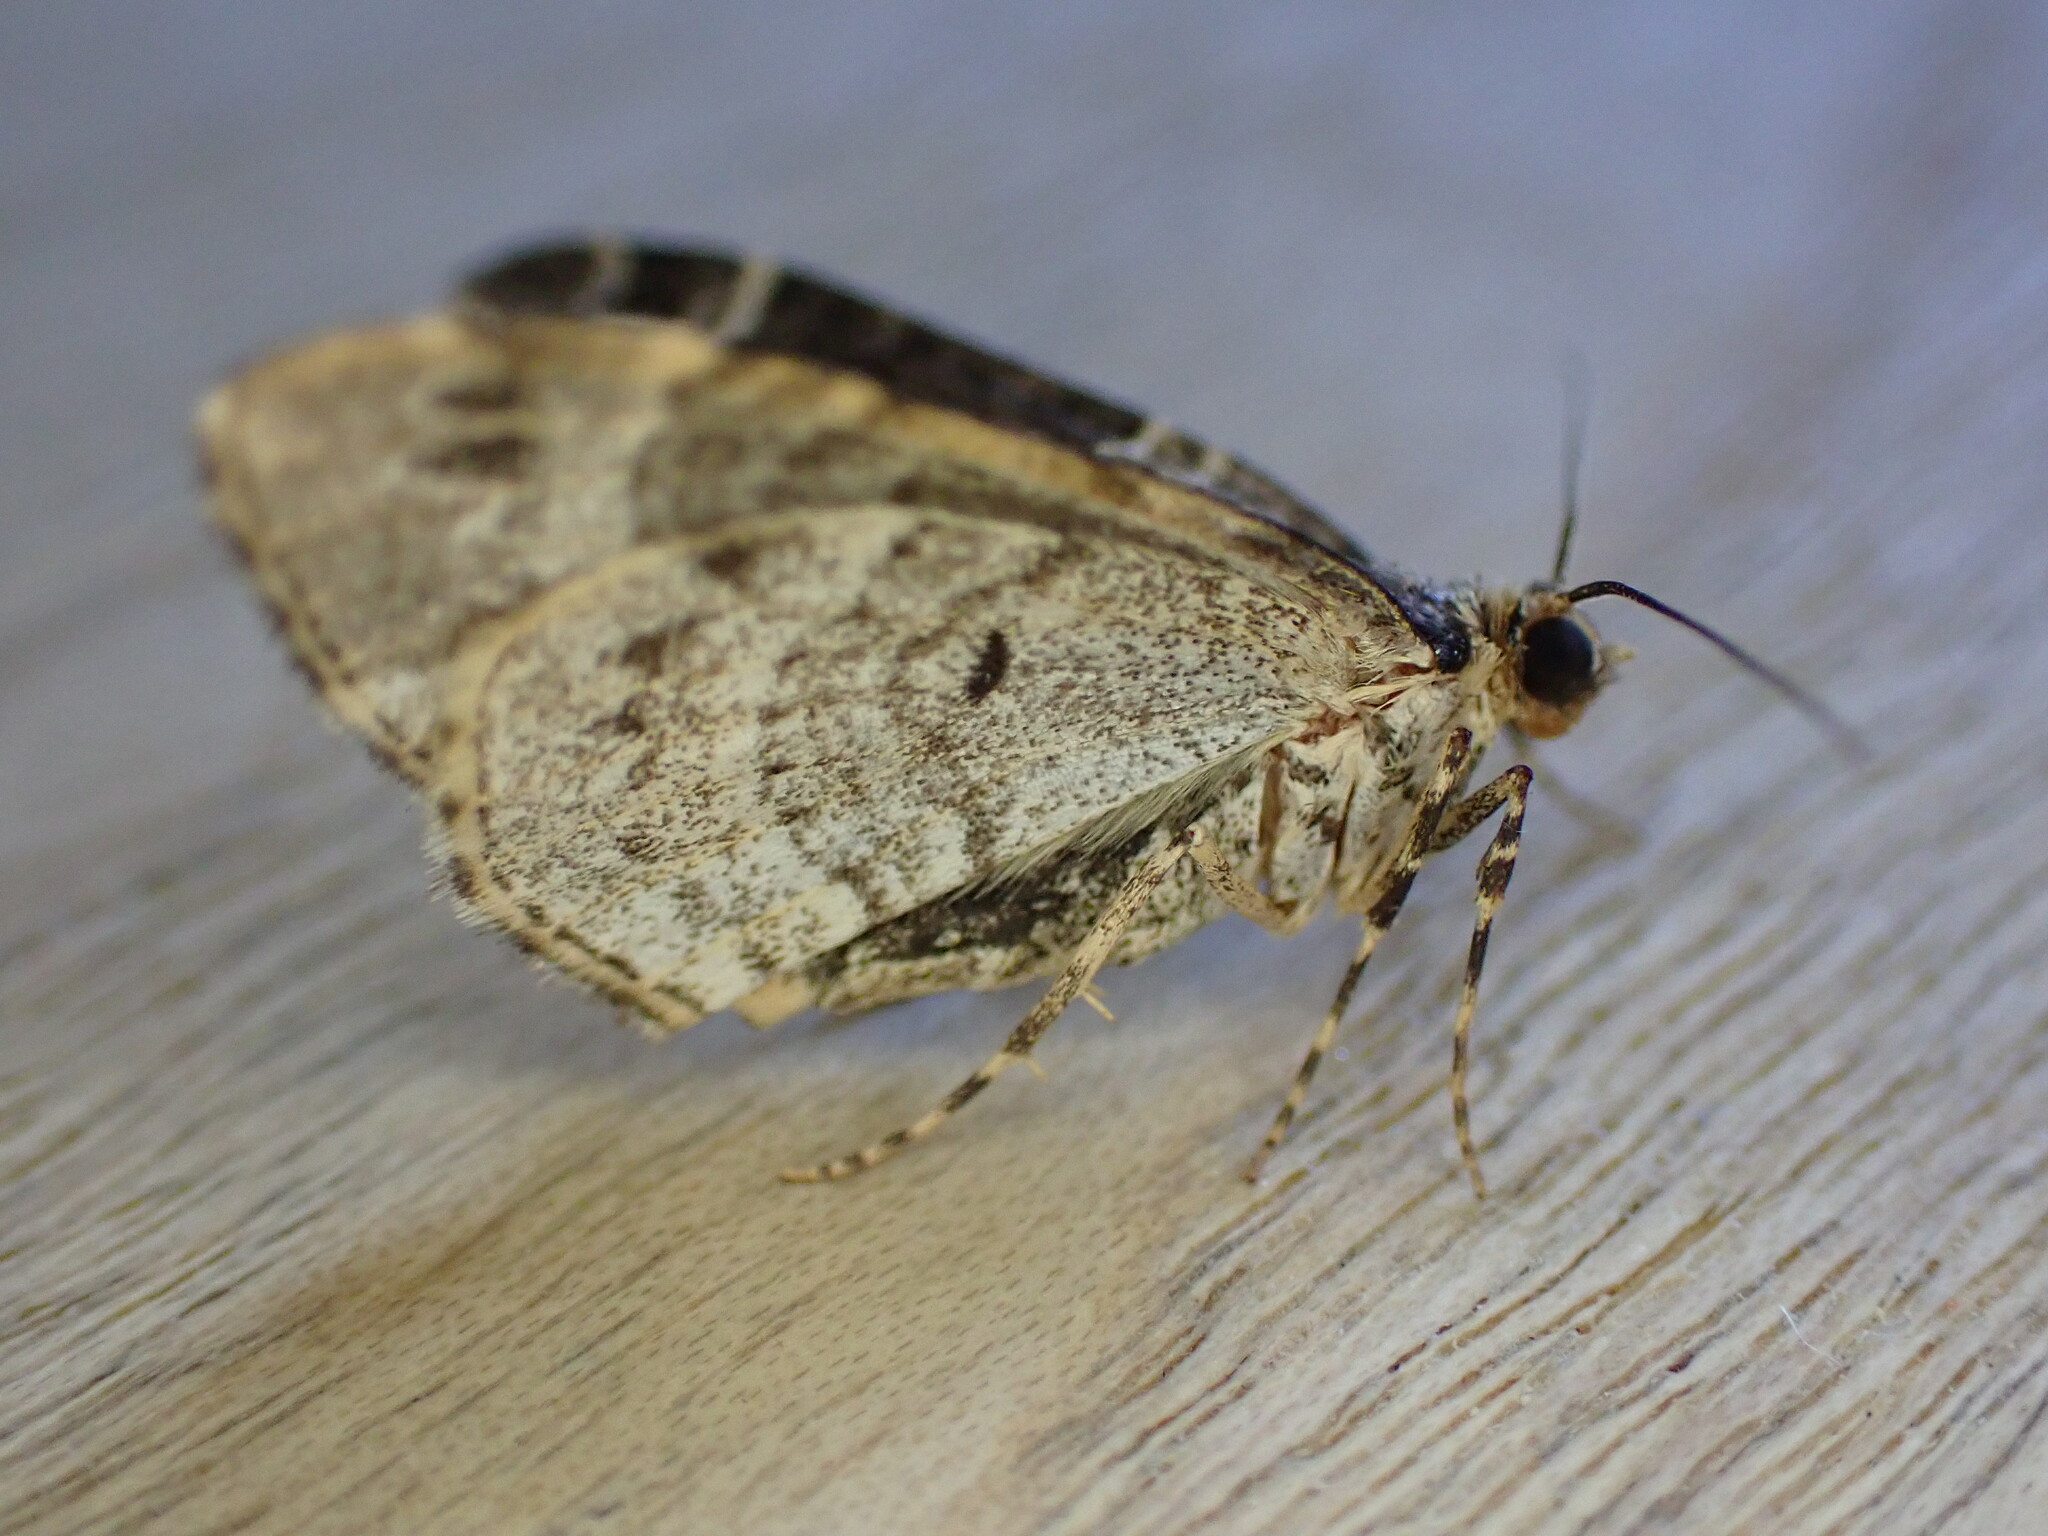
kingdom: Animalia
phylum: Arthropoda
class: Insecta
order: Lepidoptera
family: Geometridae
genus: Ecliptopera
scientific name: Ecliptopera silaceata
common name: Small phoenix
